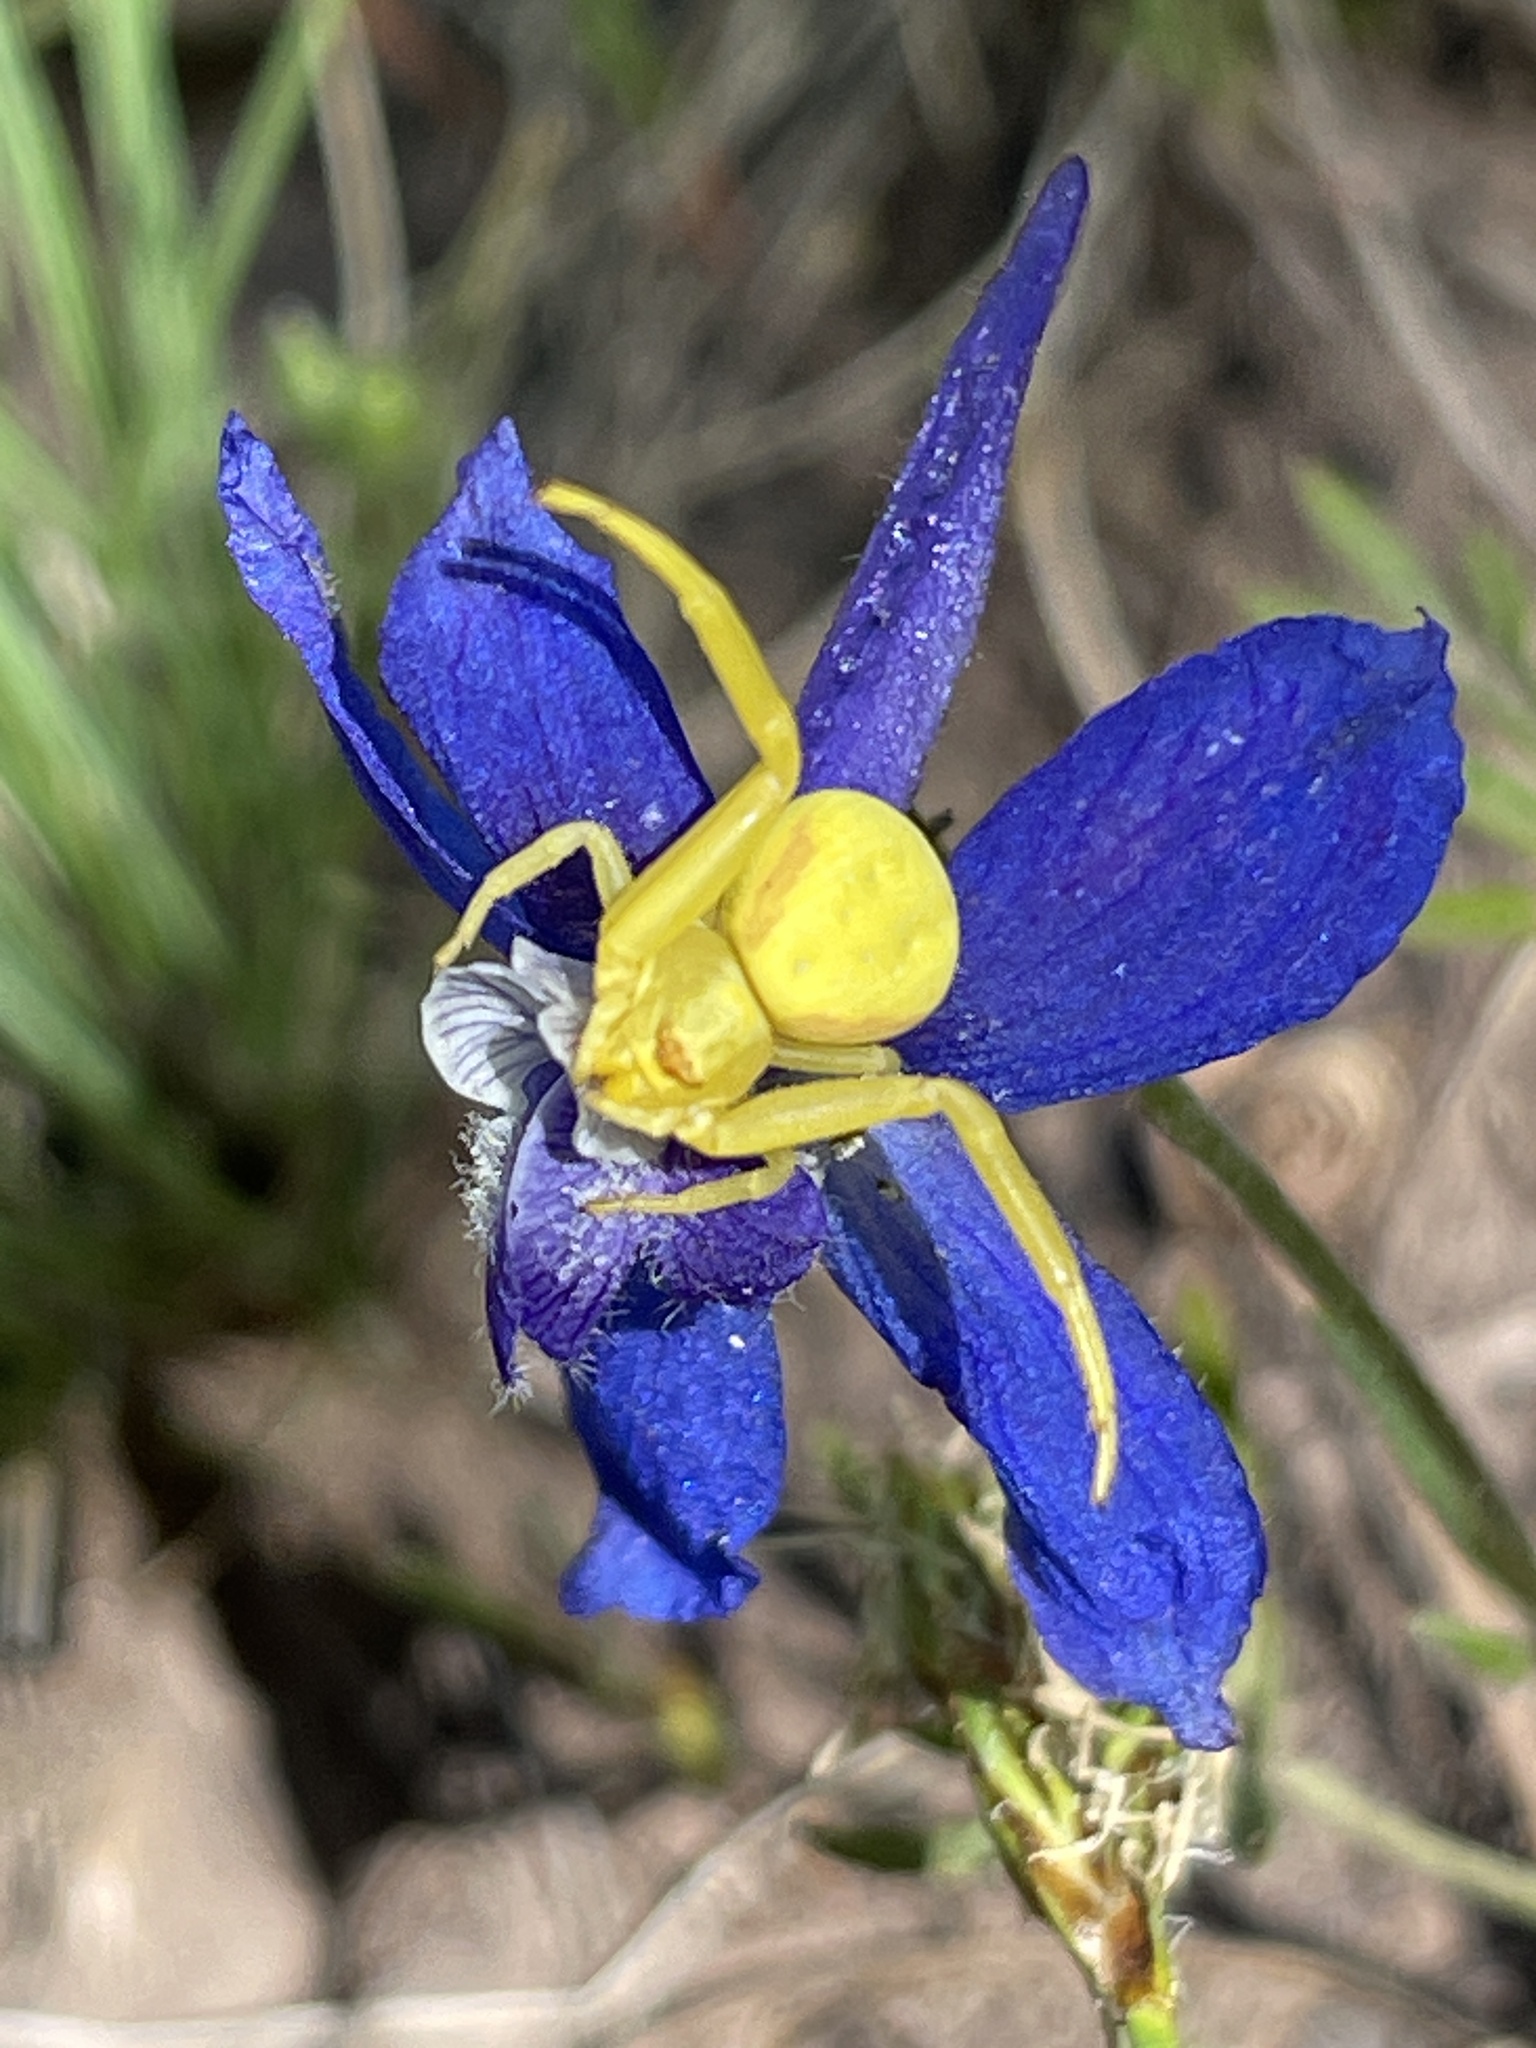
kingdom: Animalia
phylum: Arthropoda
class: Arachnida
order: Araneae
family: Thomisidae
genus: Misumena
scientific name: Misumena vatia
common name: Goldenrod crab spider
